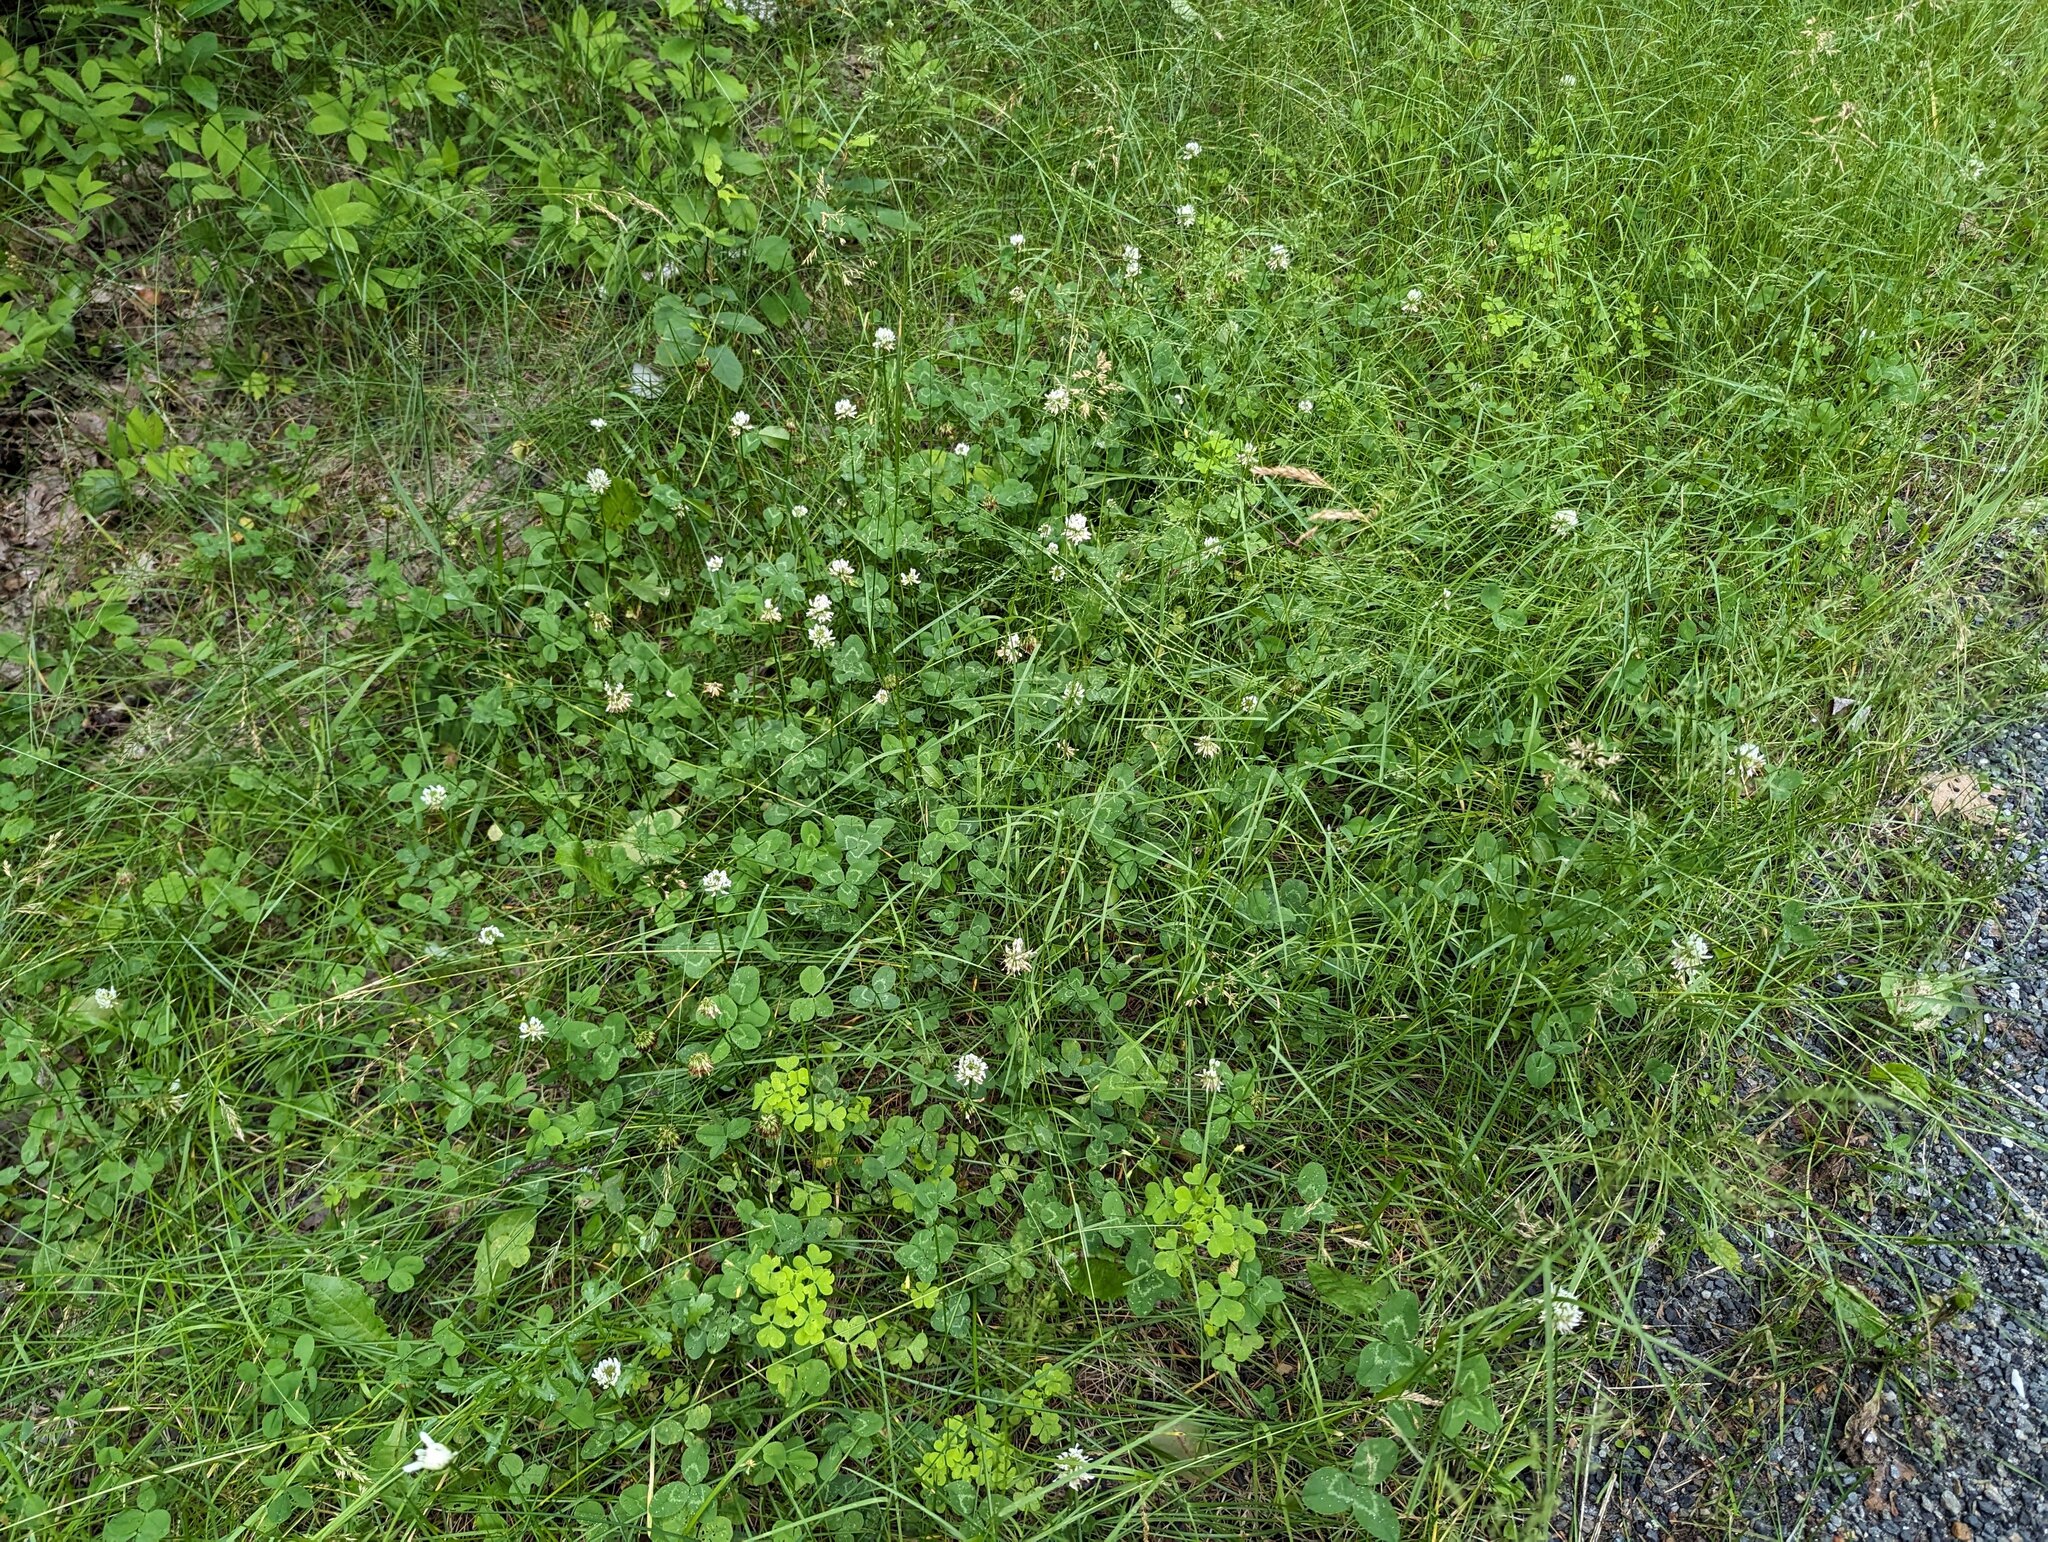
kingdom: Plantae
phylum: Tracheophyta
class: Magnoliopsida
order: Fabales
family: Fabaceae
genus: Trifolium
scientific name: Trifolium repens
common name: White clover
